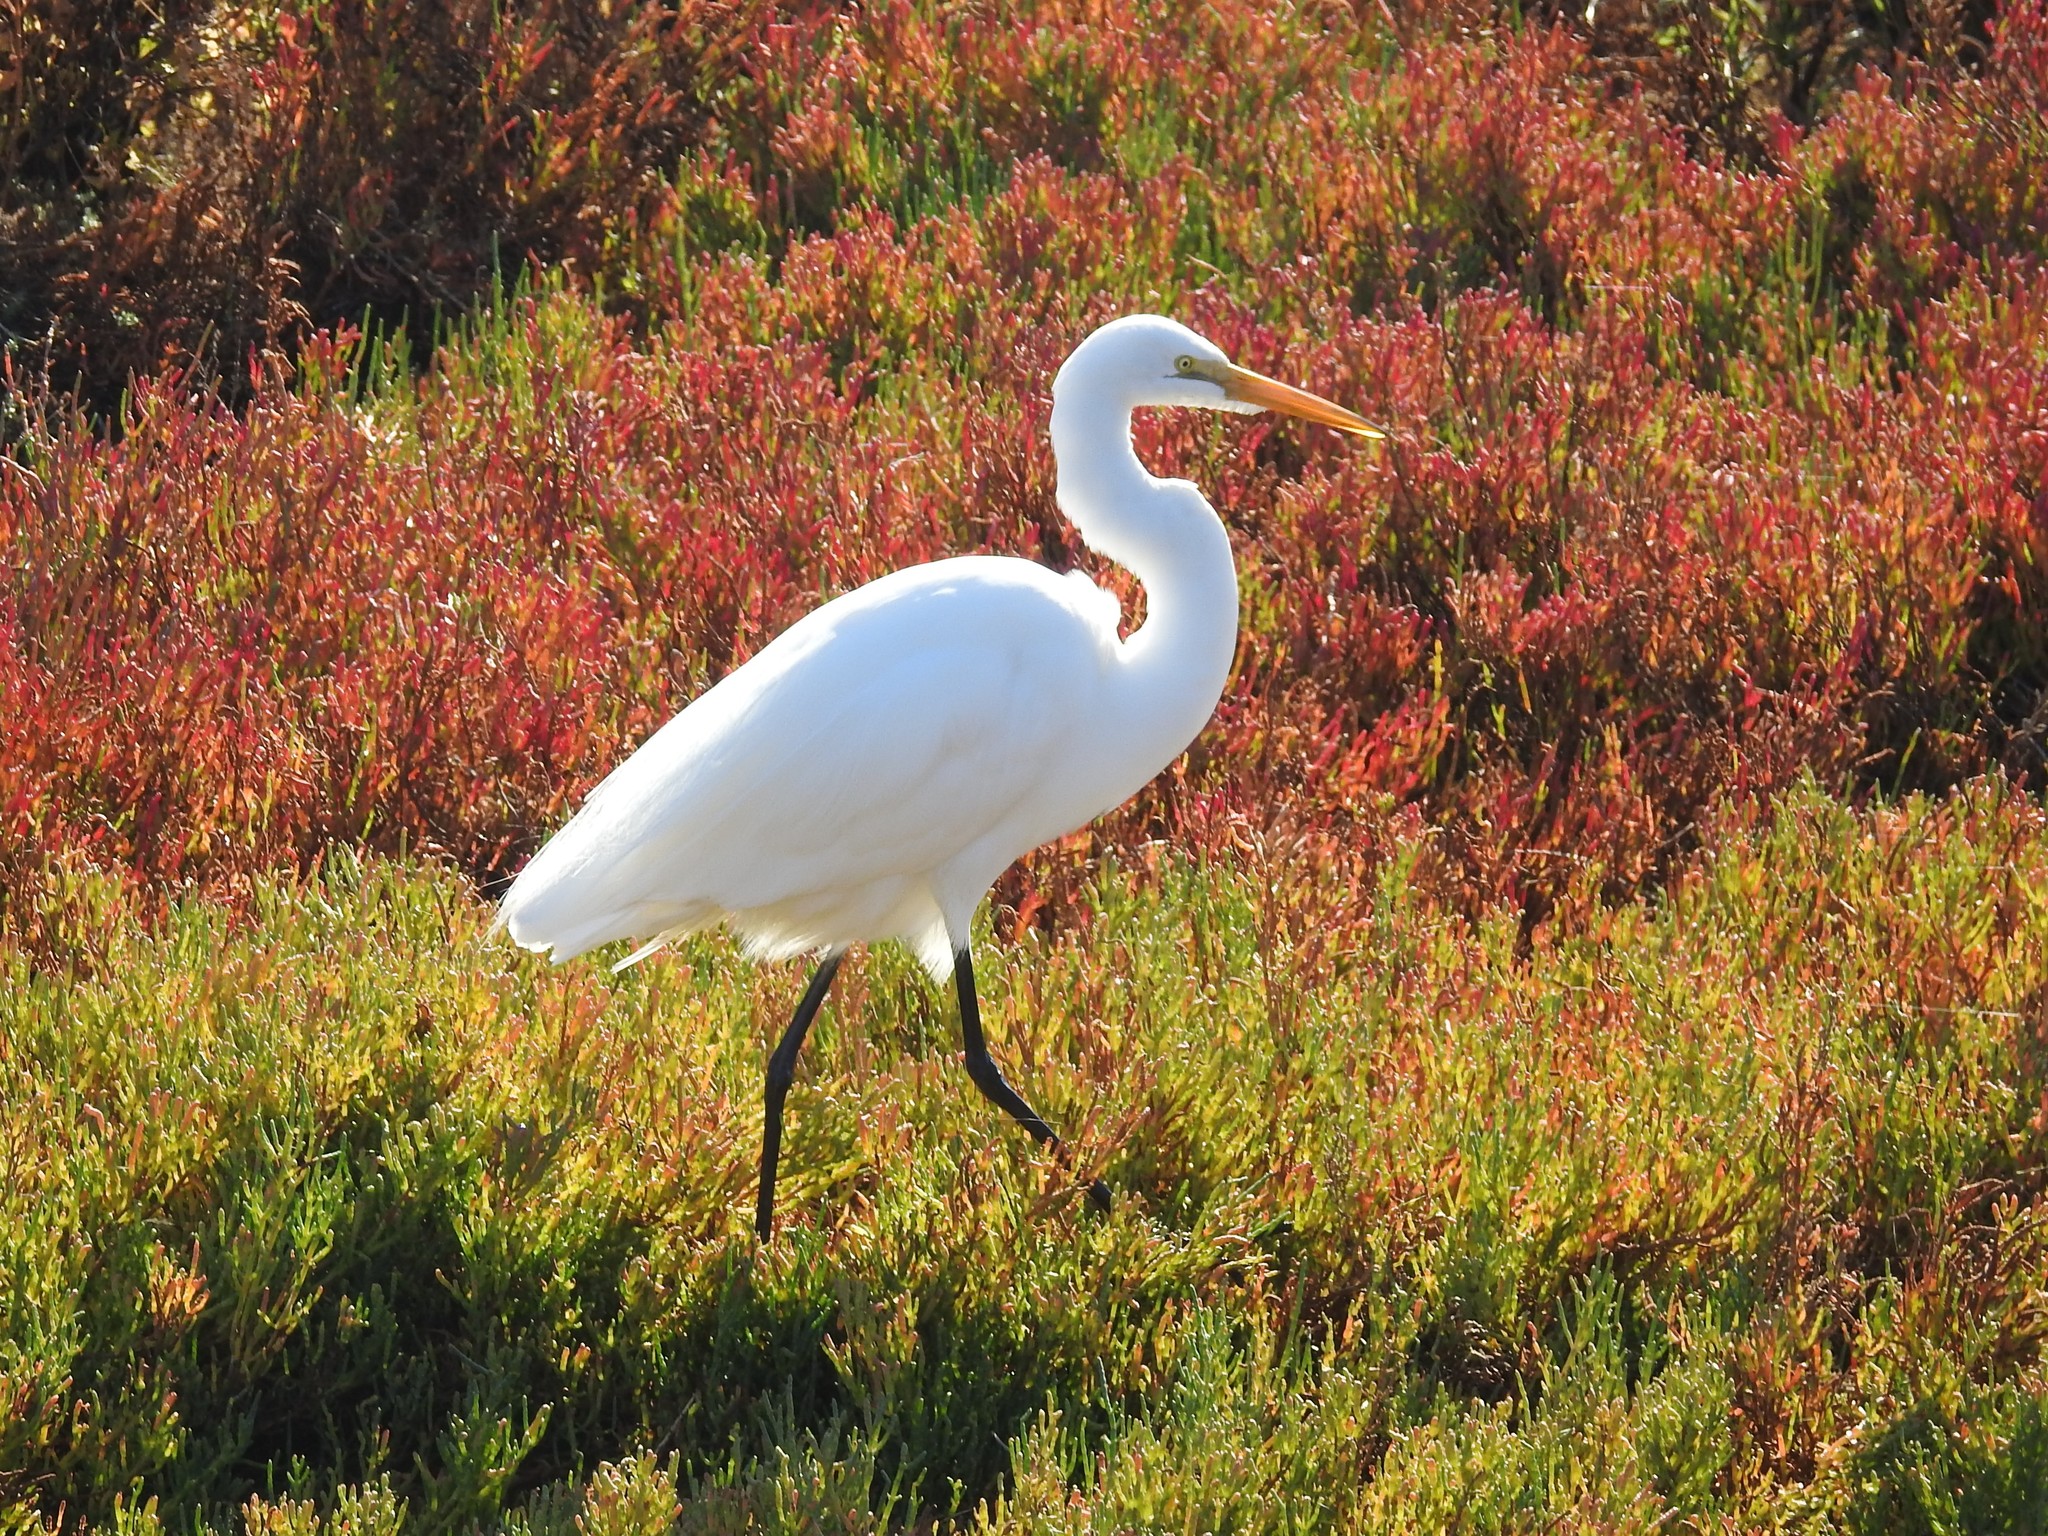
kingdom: Animalia
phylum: Chordata
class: Aves
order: Pelecaniformes
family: Ardeidae
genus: Ardea
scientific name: Ardea alba
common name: Great egret
